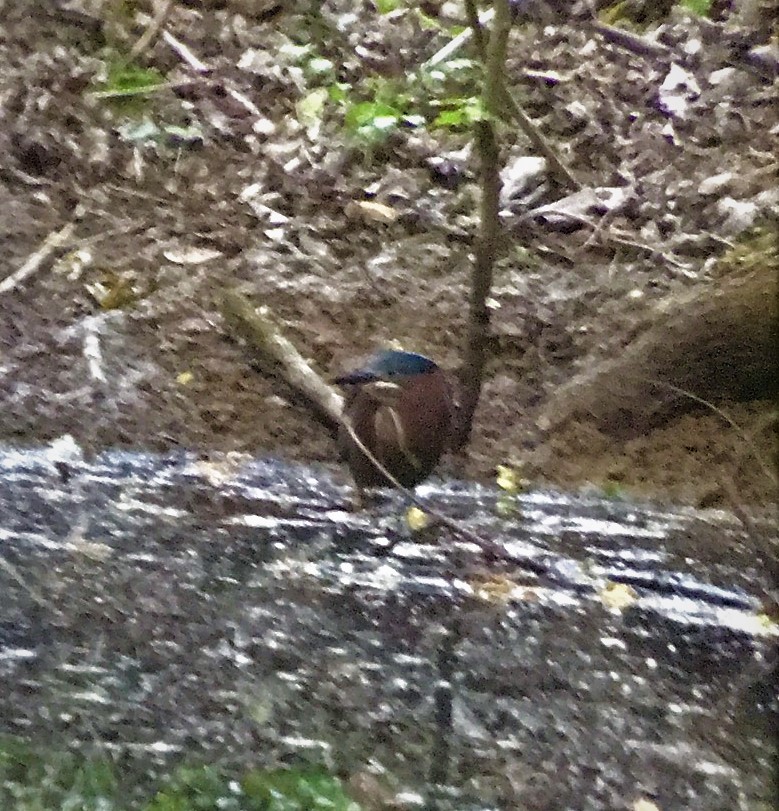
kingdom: Animalia
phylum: Chordata
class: Aves
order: Pelecaniformes
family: Ardeidae
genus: Butorides
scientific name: Butorides virescens
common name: Green heron
